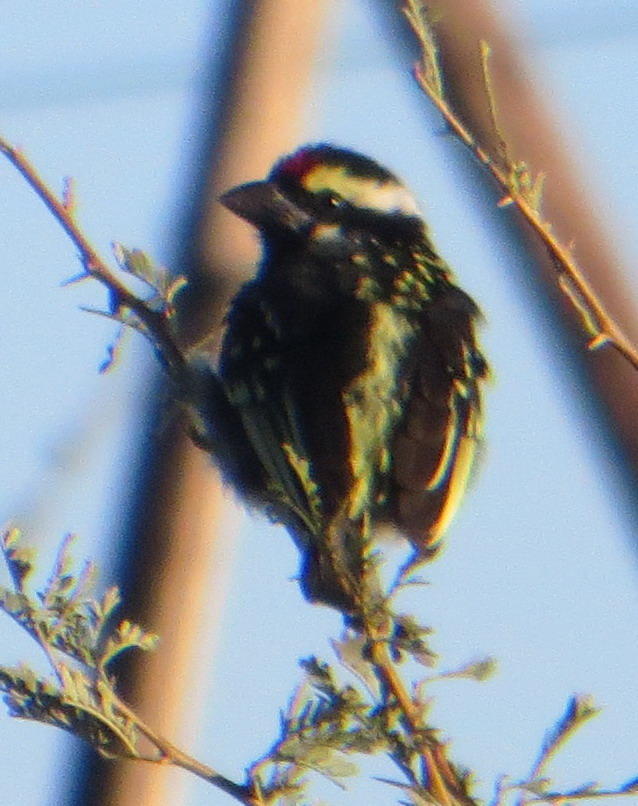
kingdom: Animalia
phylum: Chordata
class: Aves
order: Piciformes
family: Lybiidae
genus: Tricholaema
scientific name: Tricholaema leucomelas
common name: Acacia pied barbet
